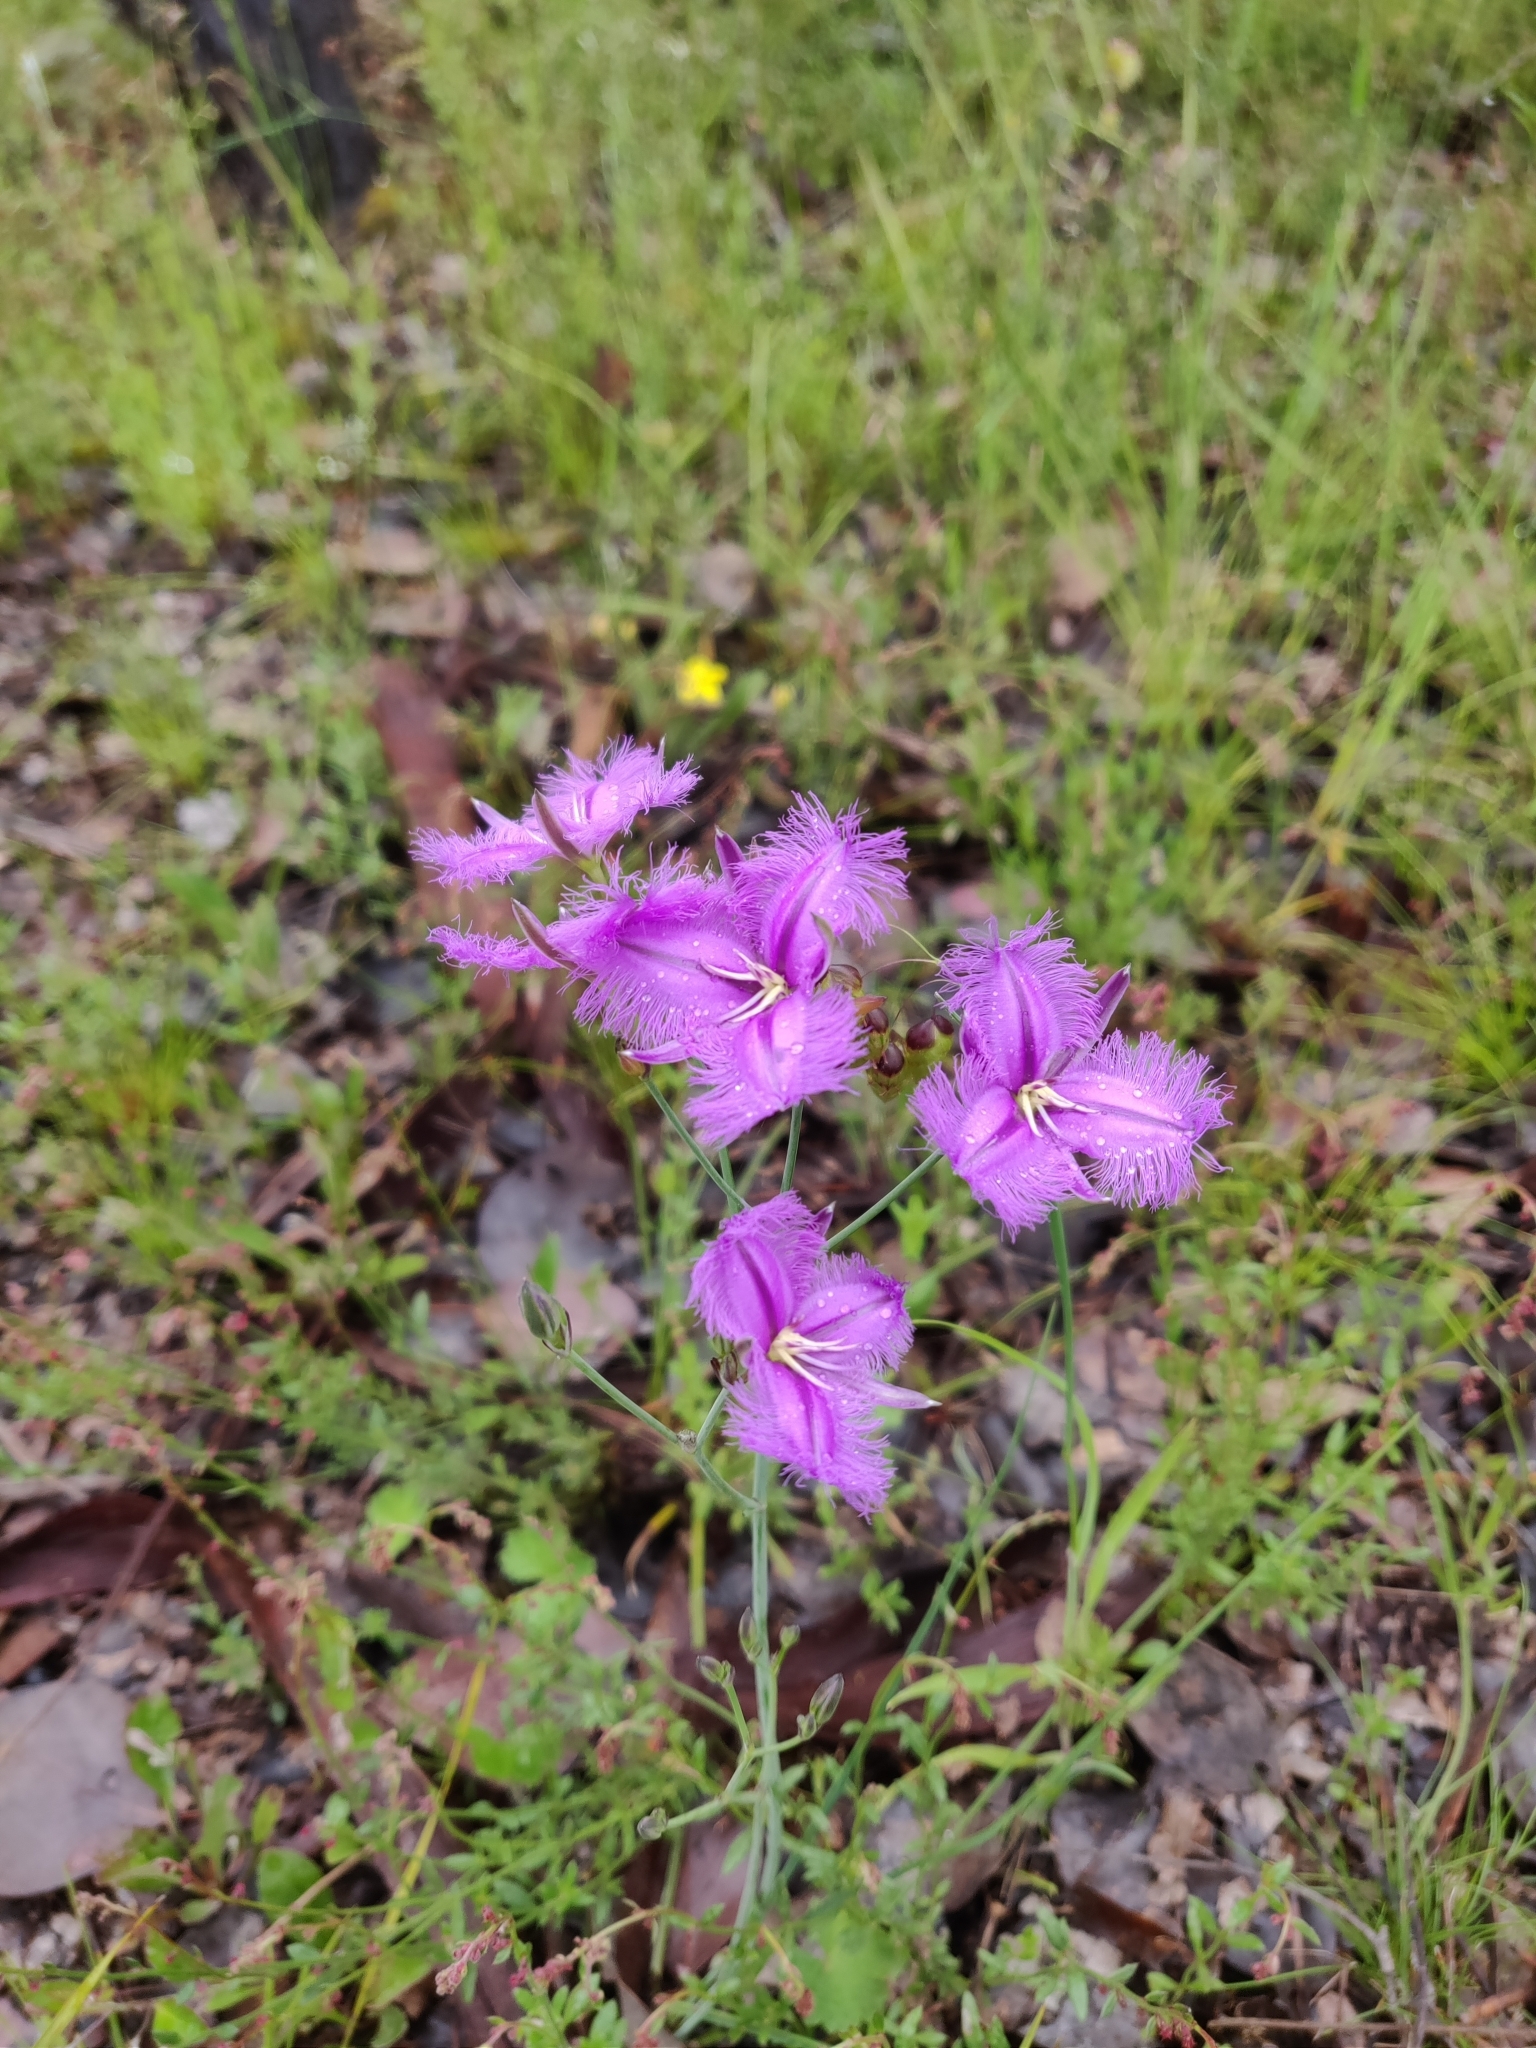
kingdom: Plantae
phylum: Tracheophyta
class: Liliopsida
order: Asparagales
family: Asparagaceae
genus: Thysanotus
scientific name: Thysanotus tuberosus
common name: Common fringed-lily
